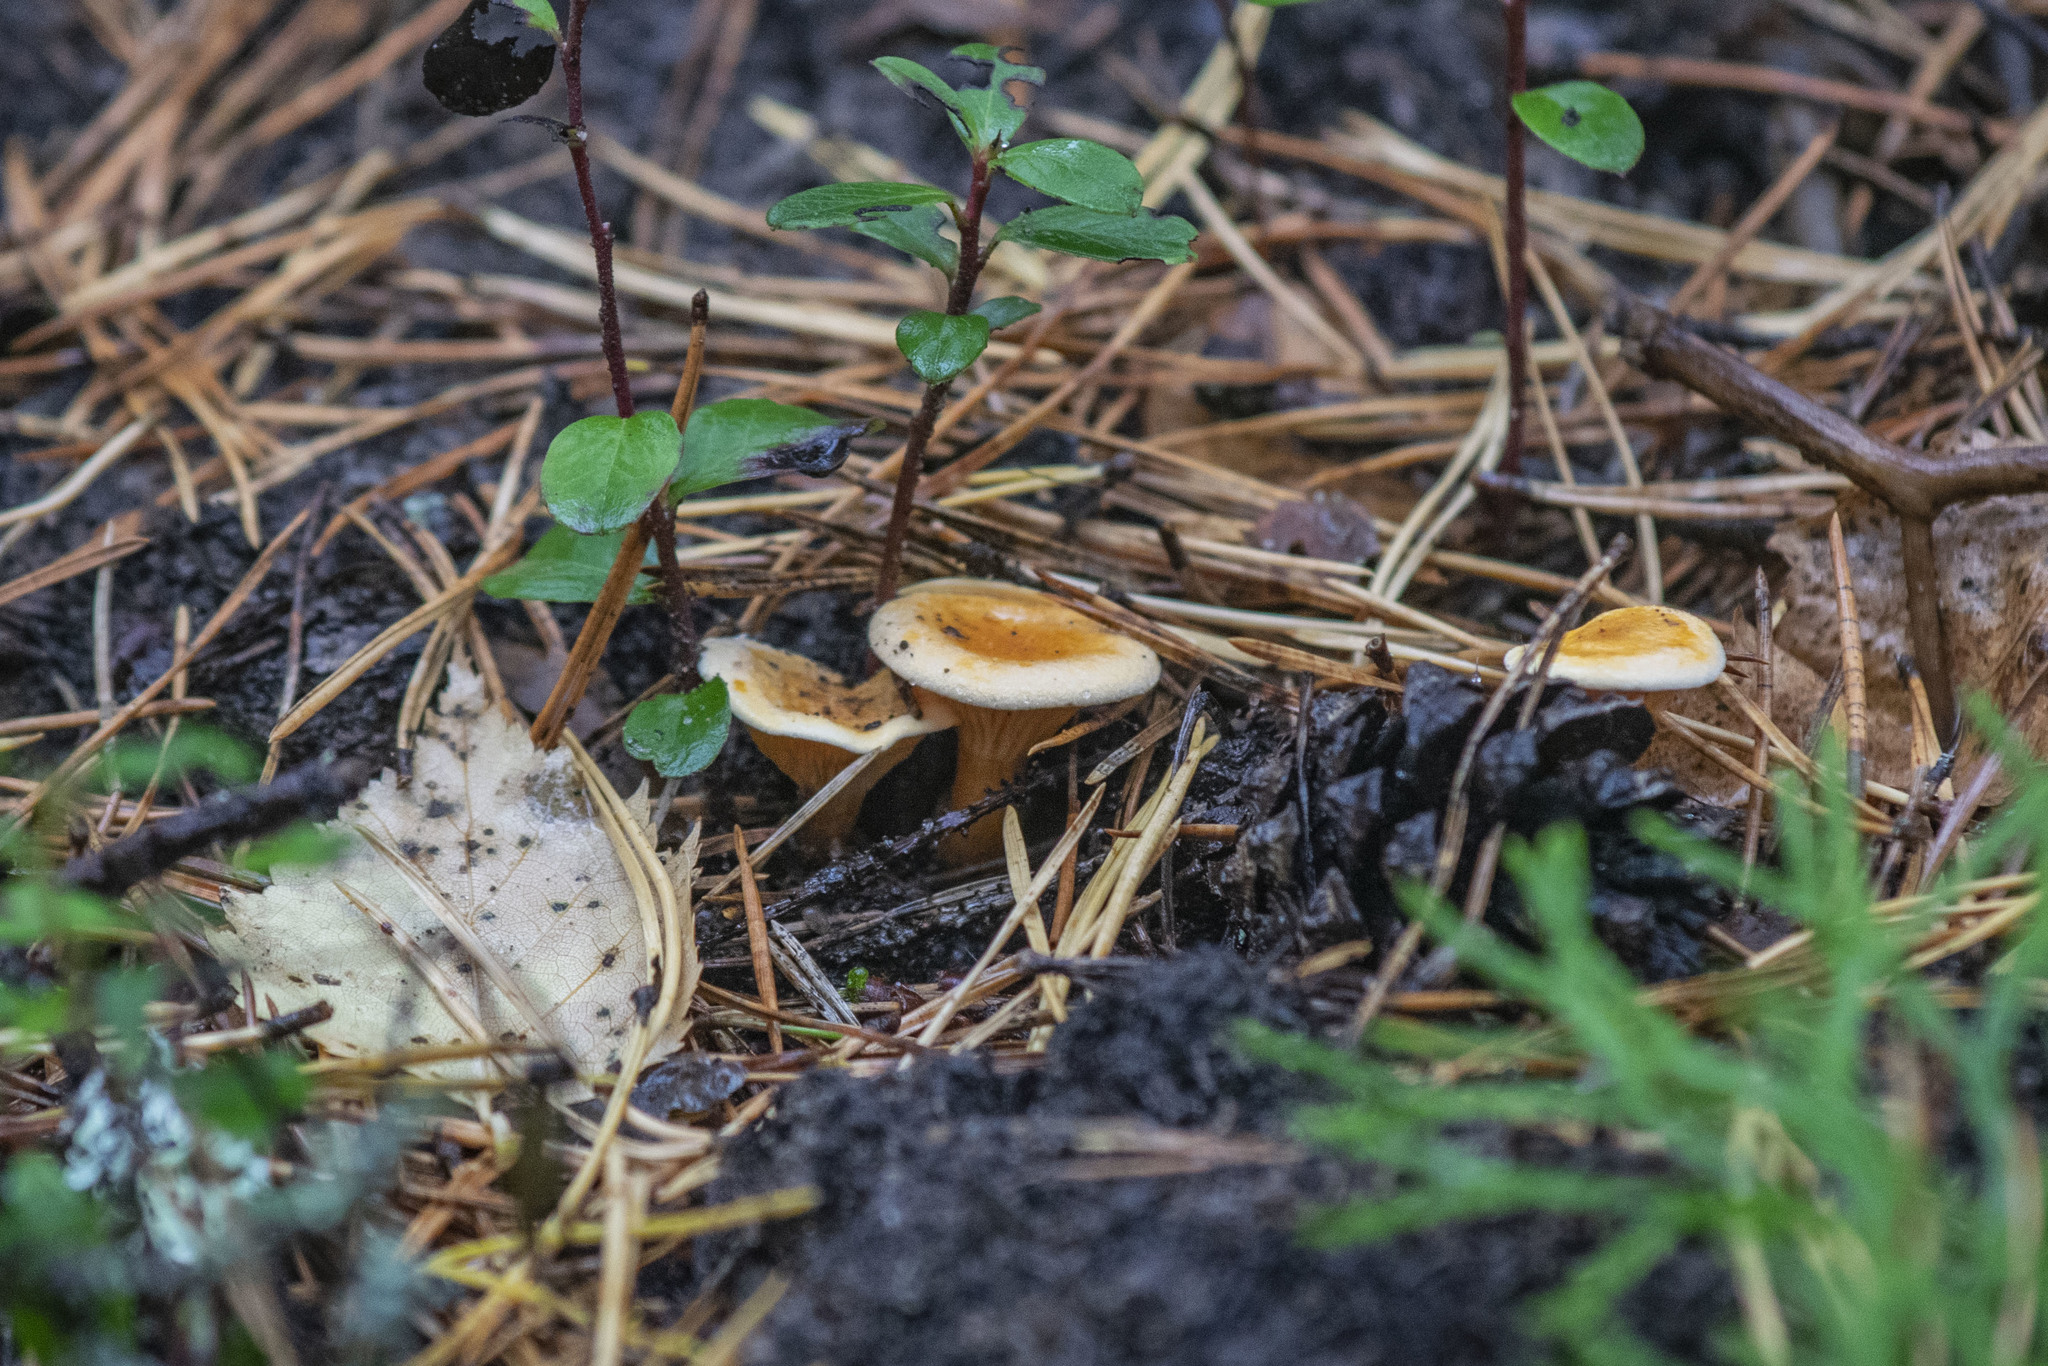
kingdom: Fungi
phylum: Basidiomycota
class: Agaricomycetes
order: Boletales
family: Hygrophoropsidaceae
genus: Hygrophoropsis
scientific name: Hygrophoropsis aurantiaca
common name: False chanterelle
